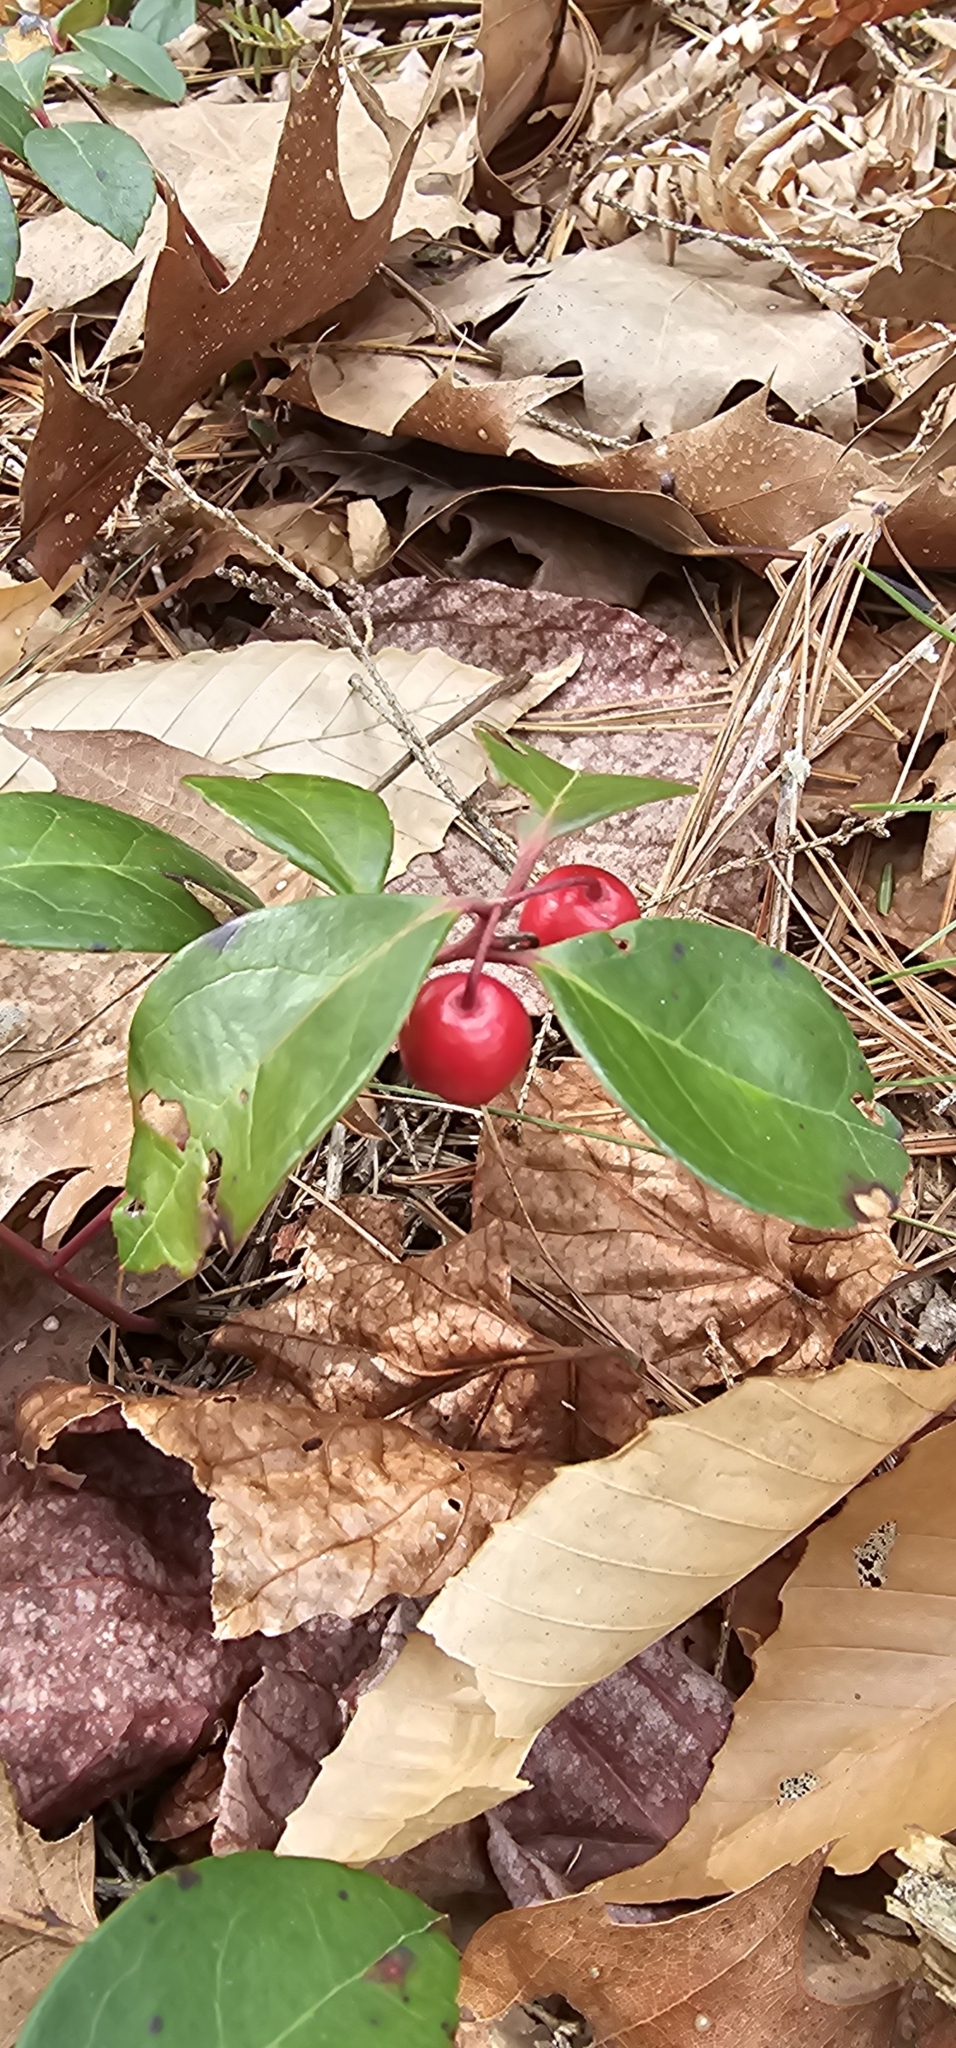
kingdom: Plantae
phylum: Tracheophyta
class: Magnoliopsida
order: Ericales
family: Ericaceae
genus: Gaultheria
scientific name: Gaultheria procumbens
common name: Checkerberry
